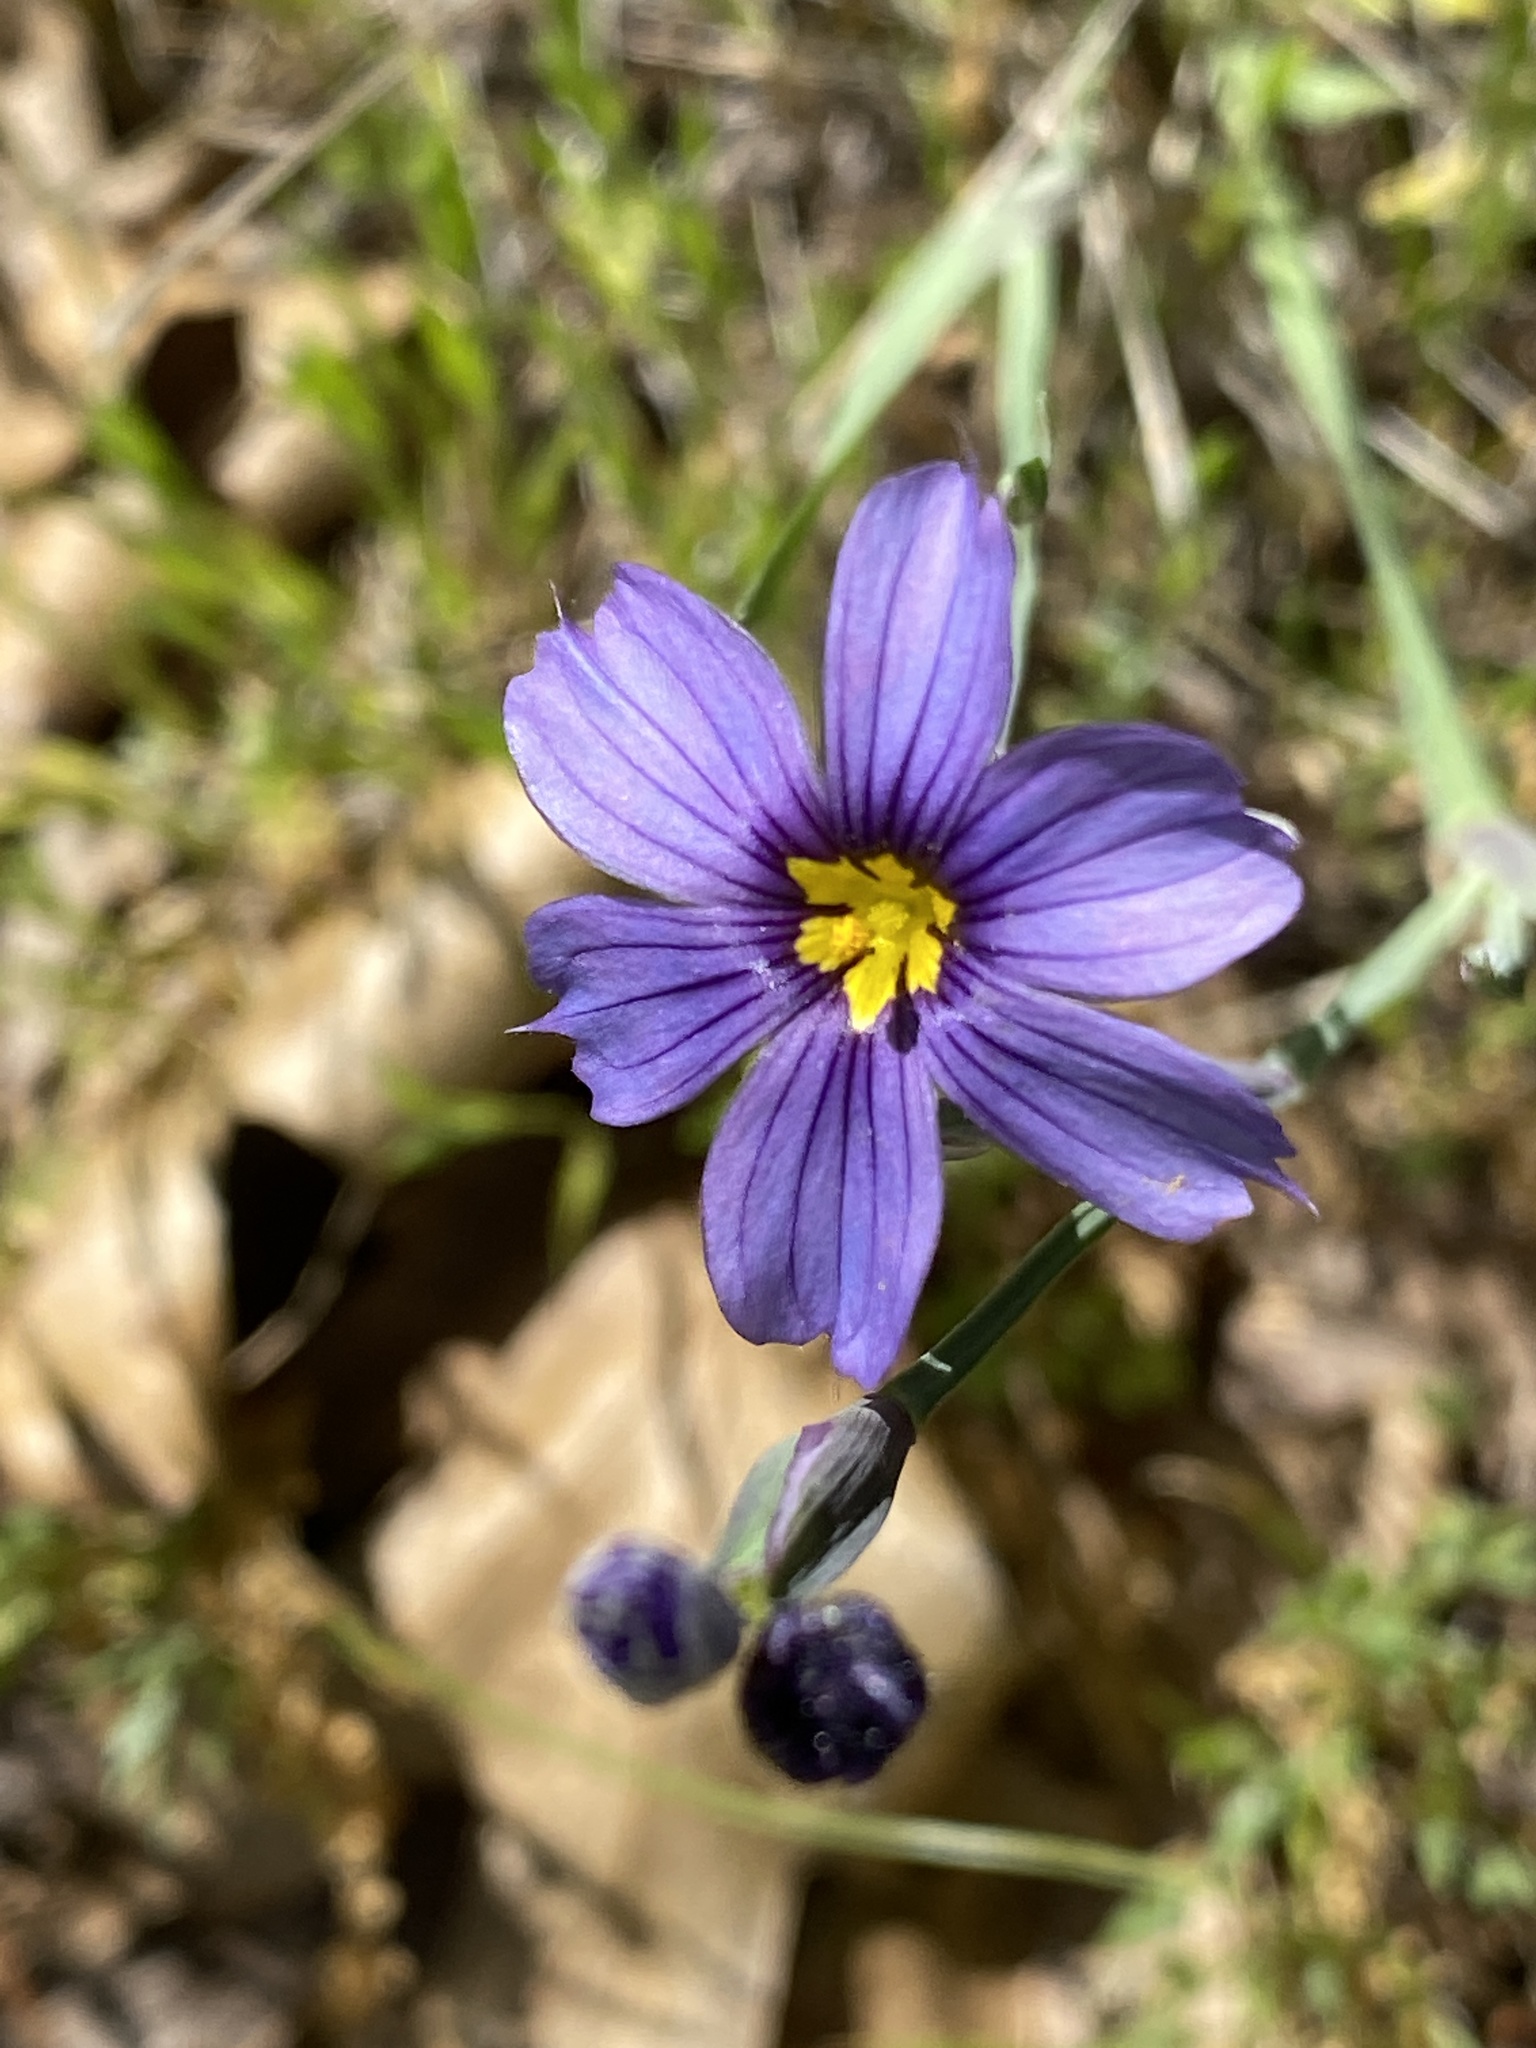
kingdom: Plantae
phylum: Tracheophyta
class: Liliopsida
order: Asparagales
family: Iridaceae
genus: Sisyrinchium
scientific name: Sisyrinchium bellum
